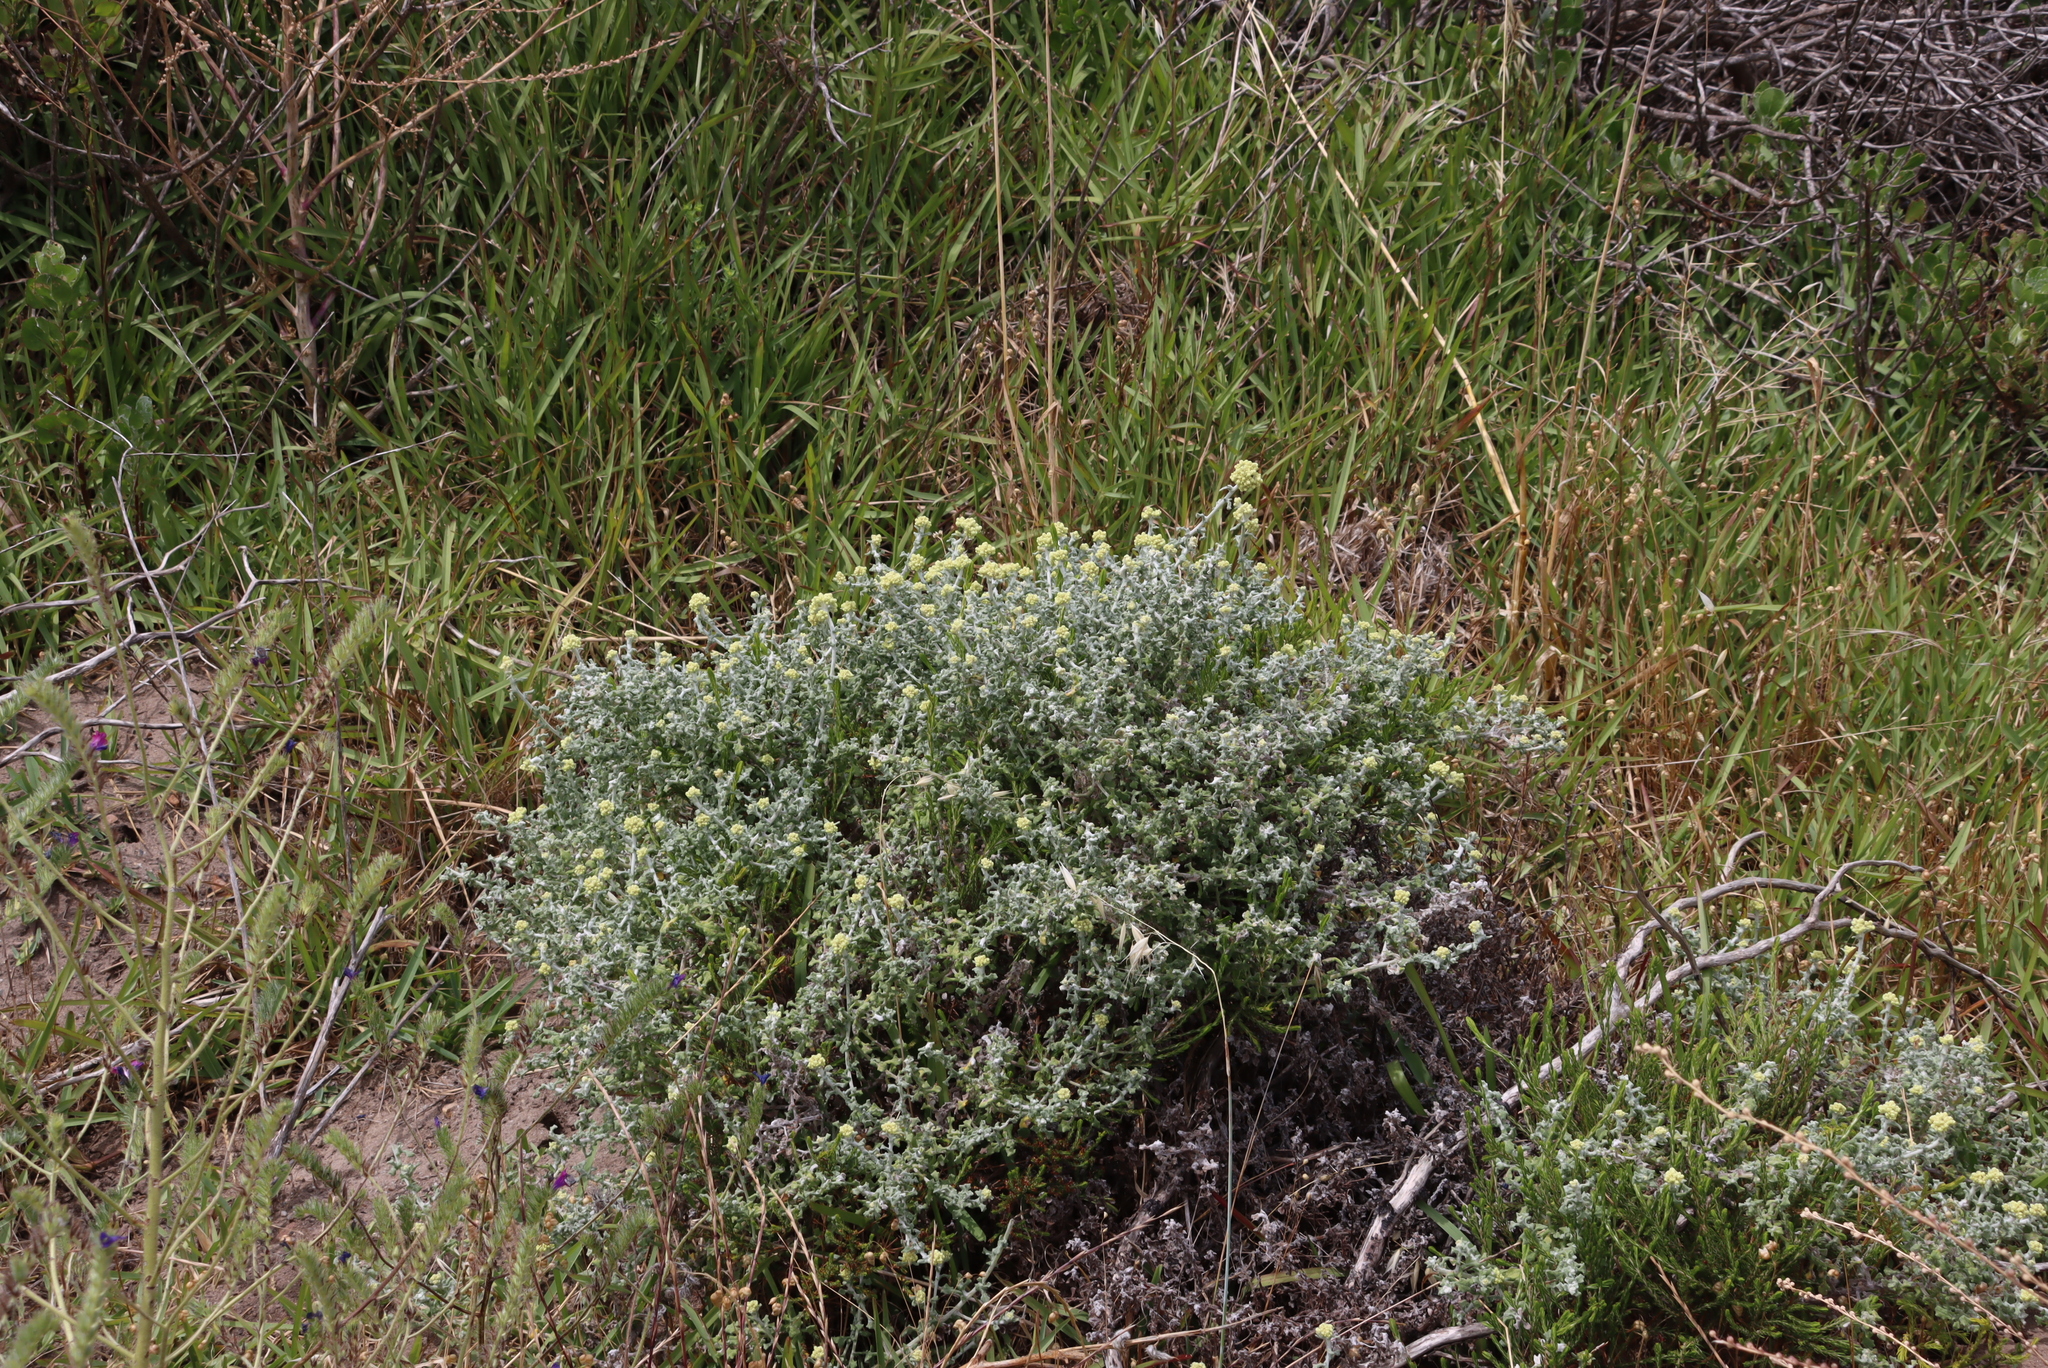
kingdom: Plantae
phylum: Tracheophyta
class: Magnoliopsida
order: Asterales
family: Asteraceae
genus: Helichrysum
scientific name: Helichrysum patulum
